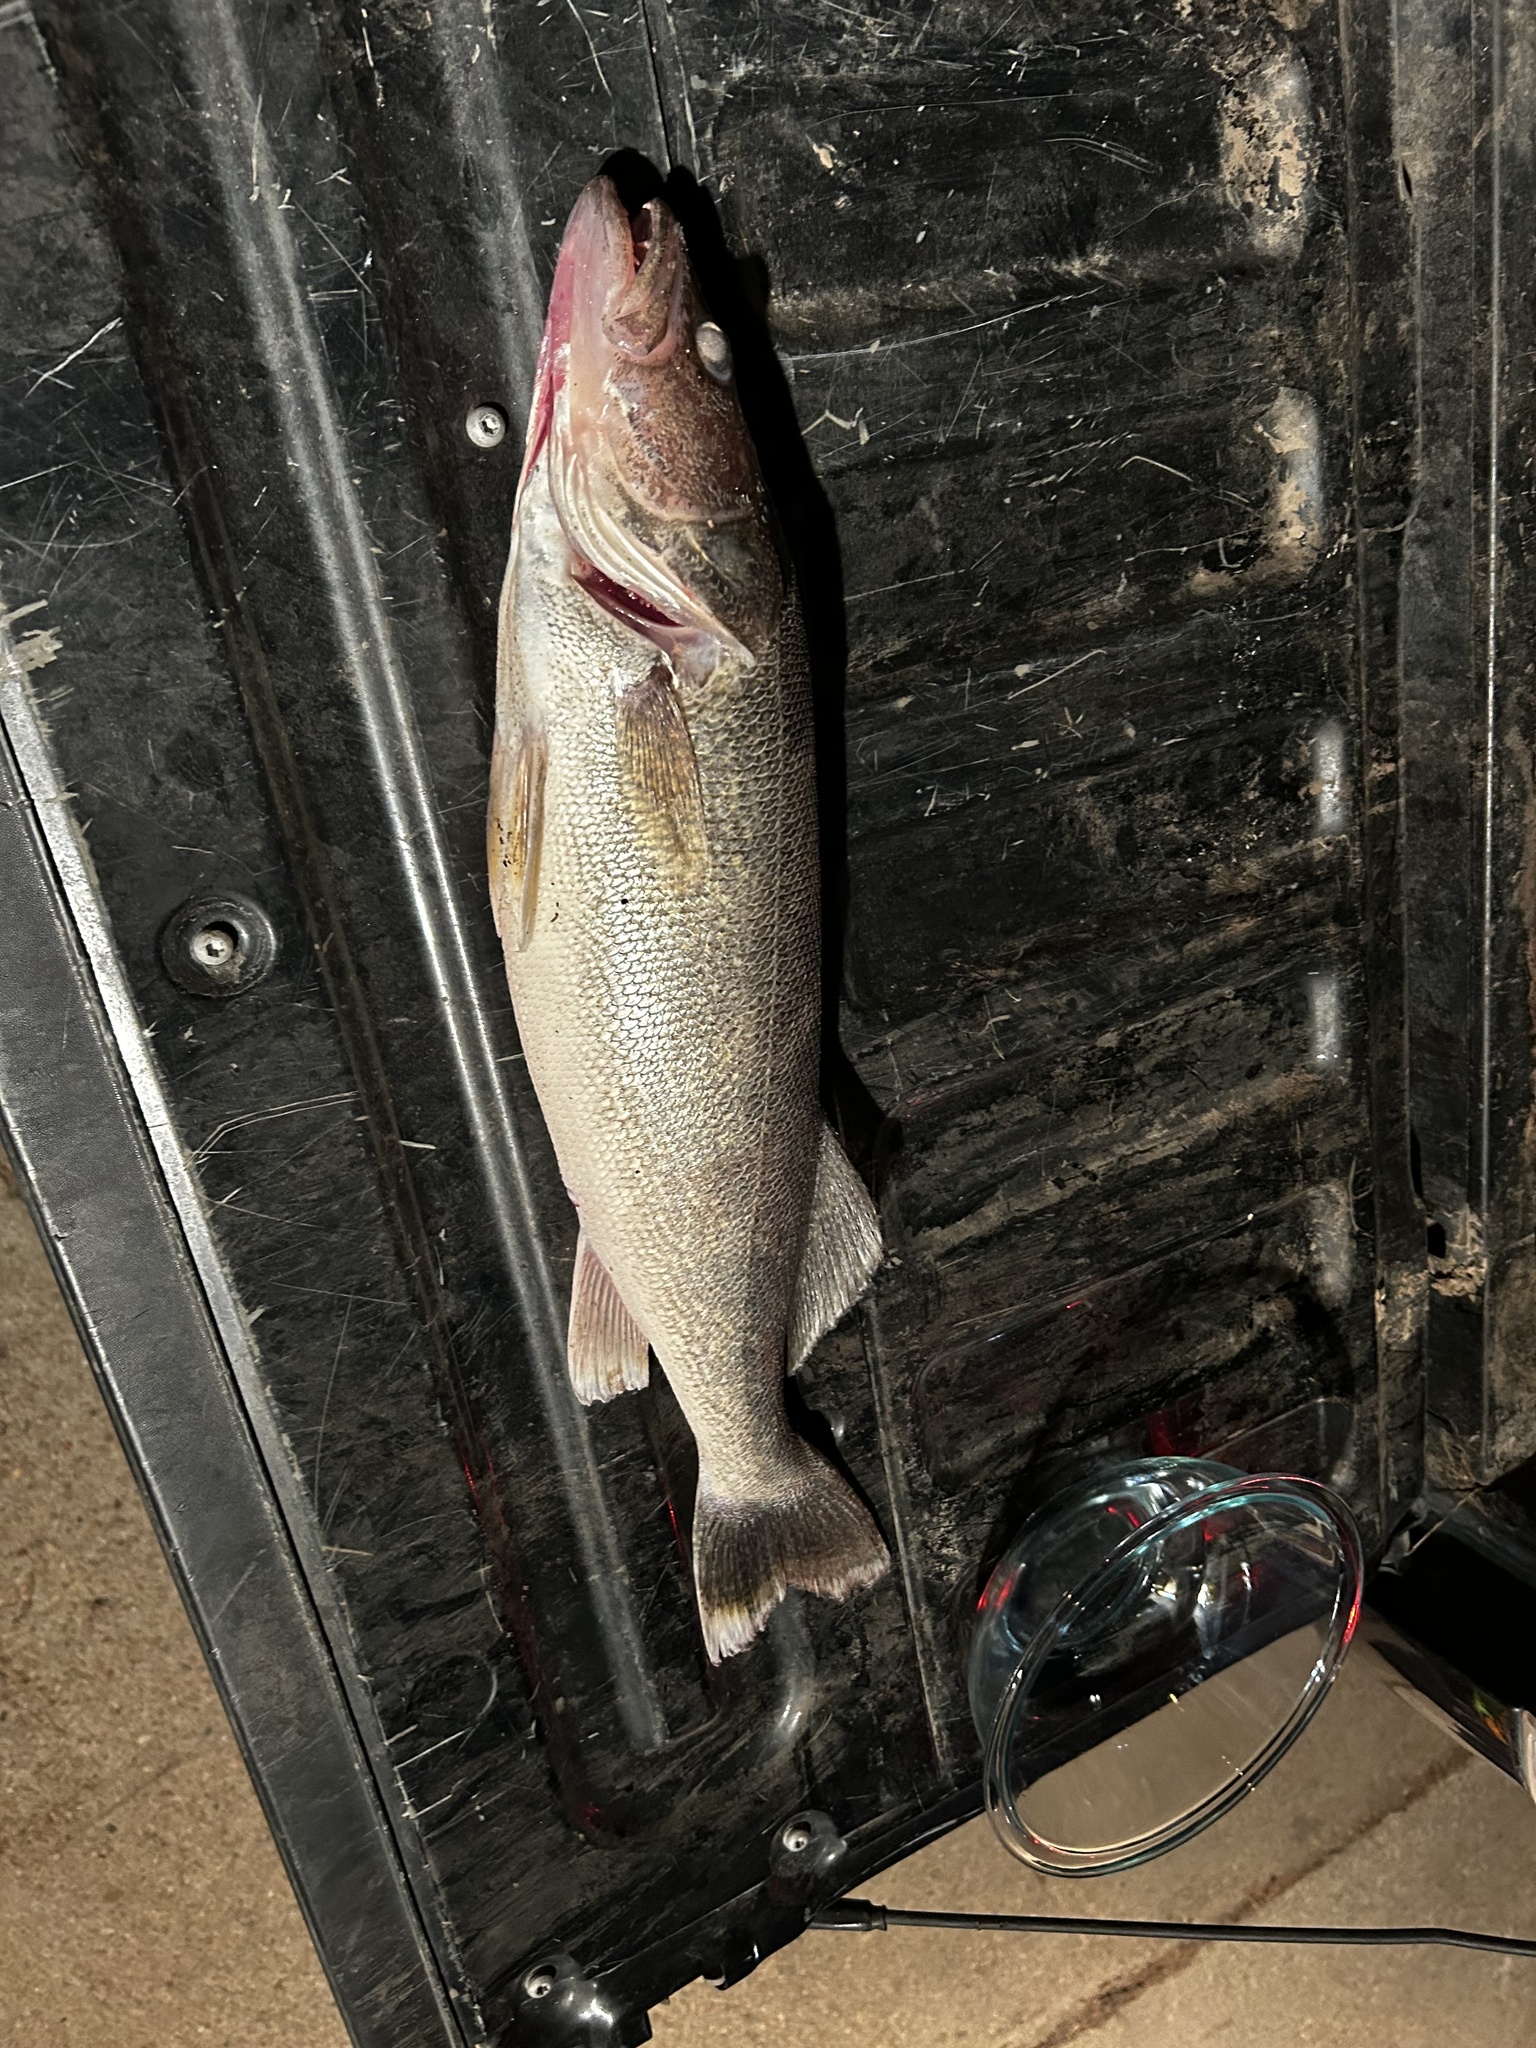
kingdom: Animalia
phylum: Chordata
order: Perciformes
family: Percidae
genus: Sander
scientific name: Sander vitreus
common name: Walleye
